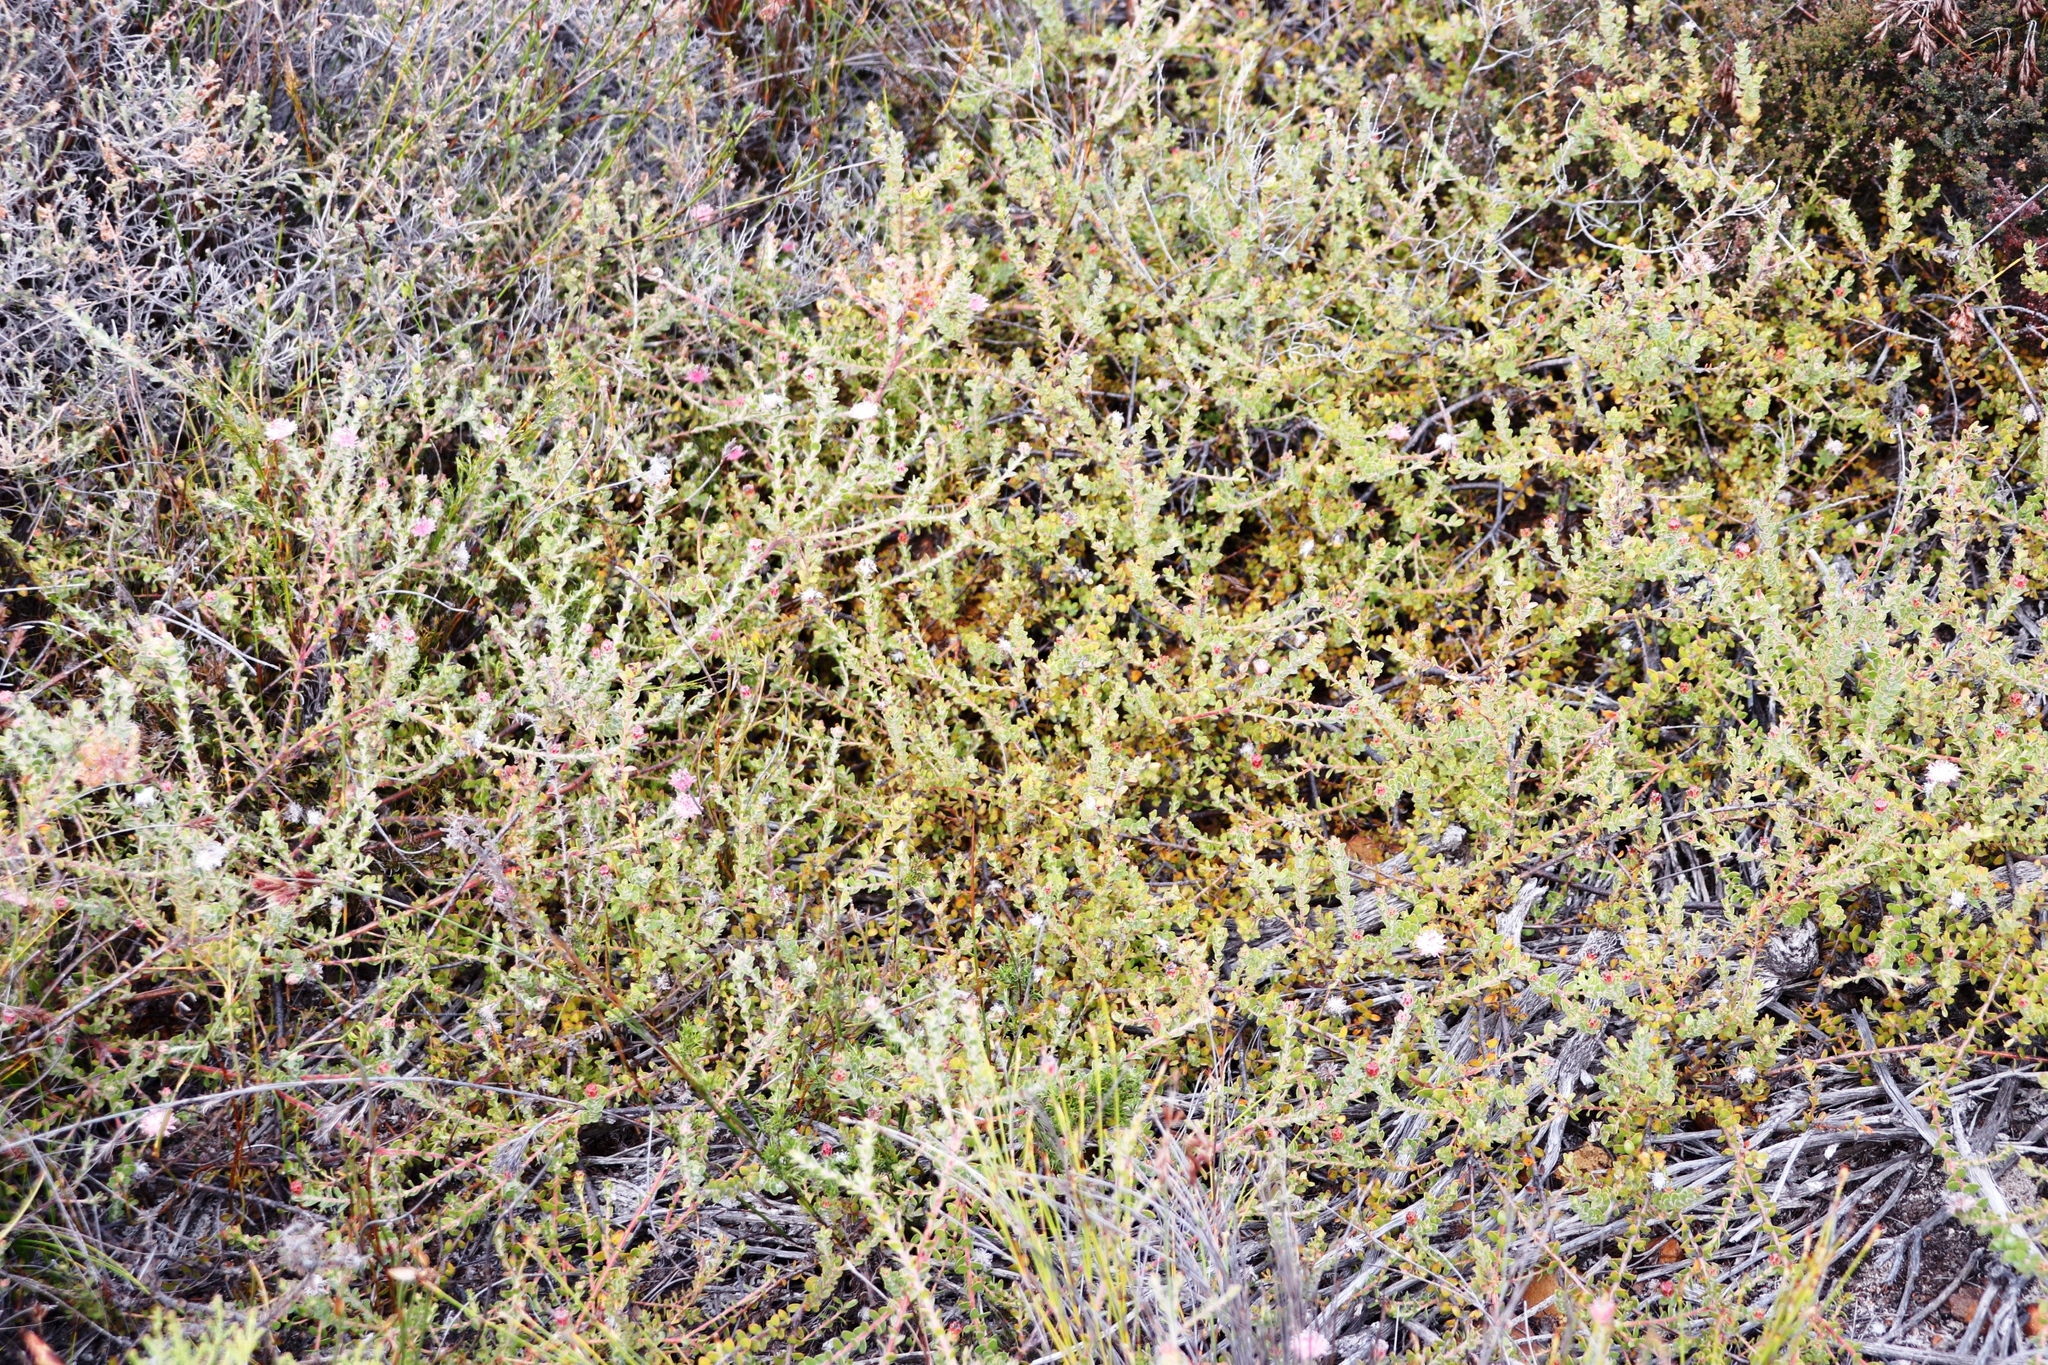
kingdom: Plantae
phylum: Tracheophyta
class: Magnoliopsida
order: Proteales
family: Proteaceae
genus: Diastella
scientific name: Diastella divaricata
